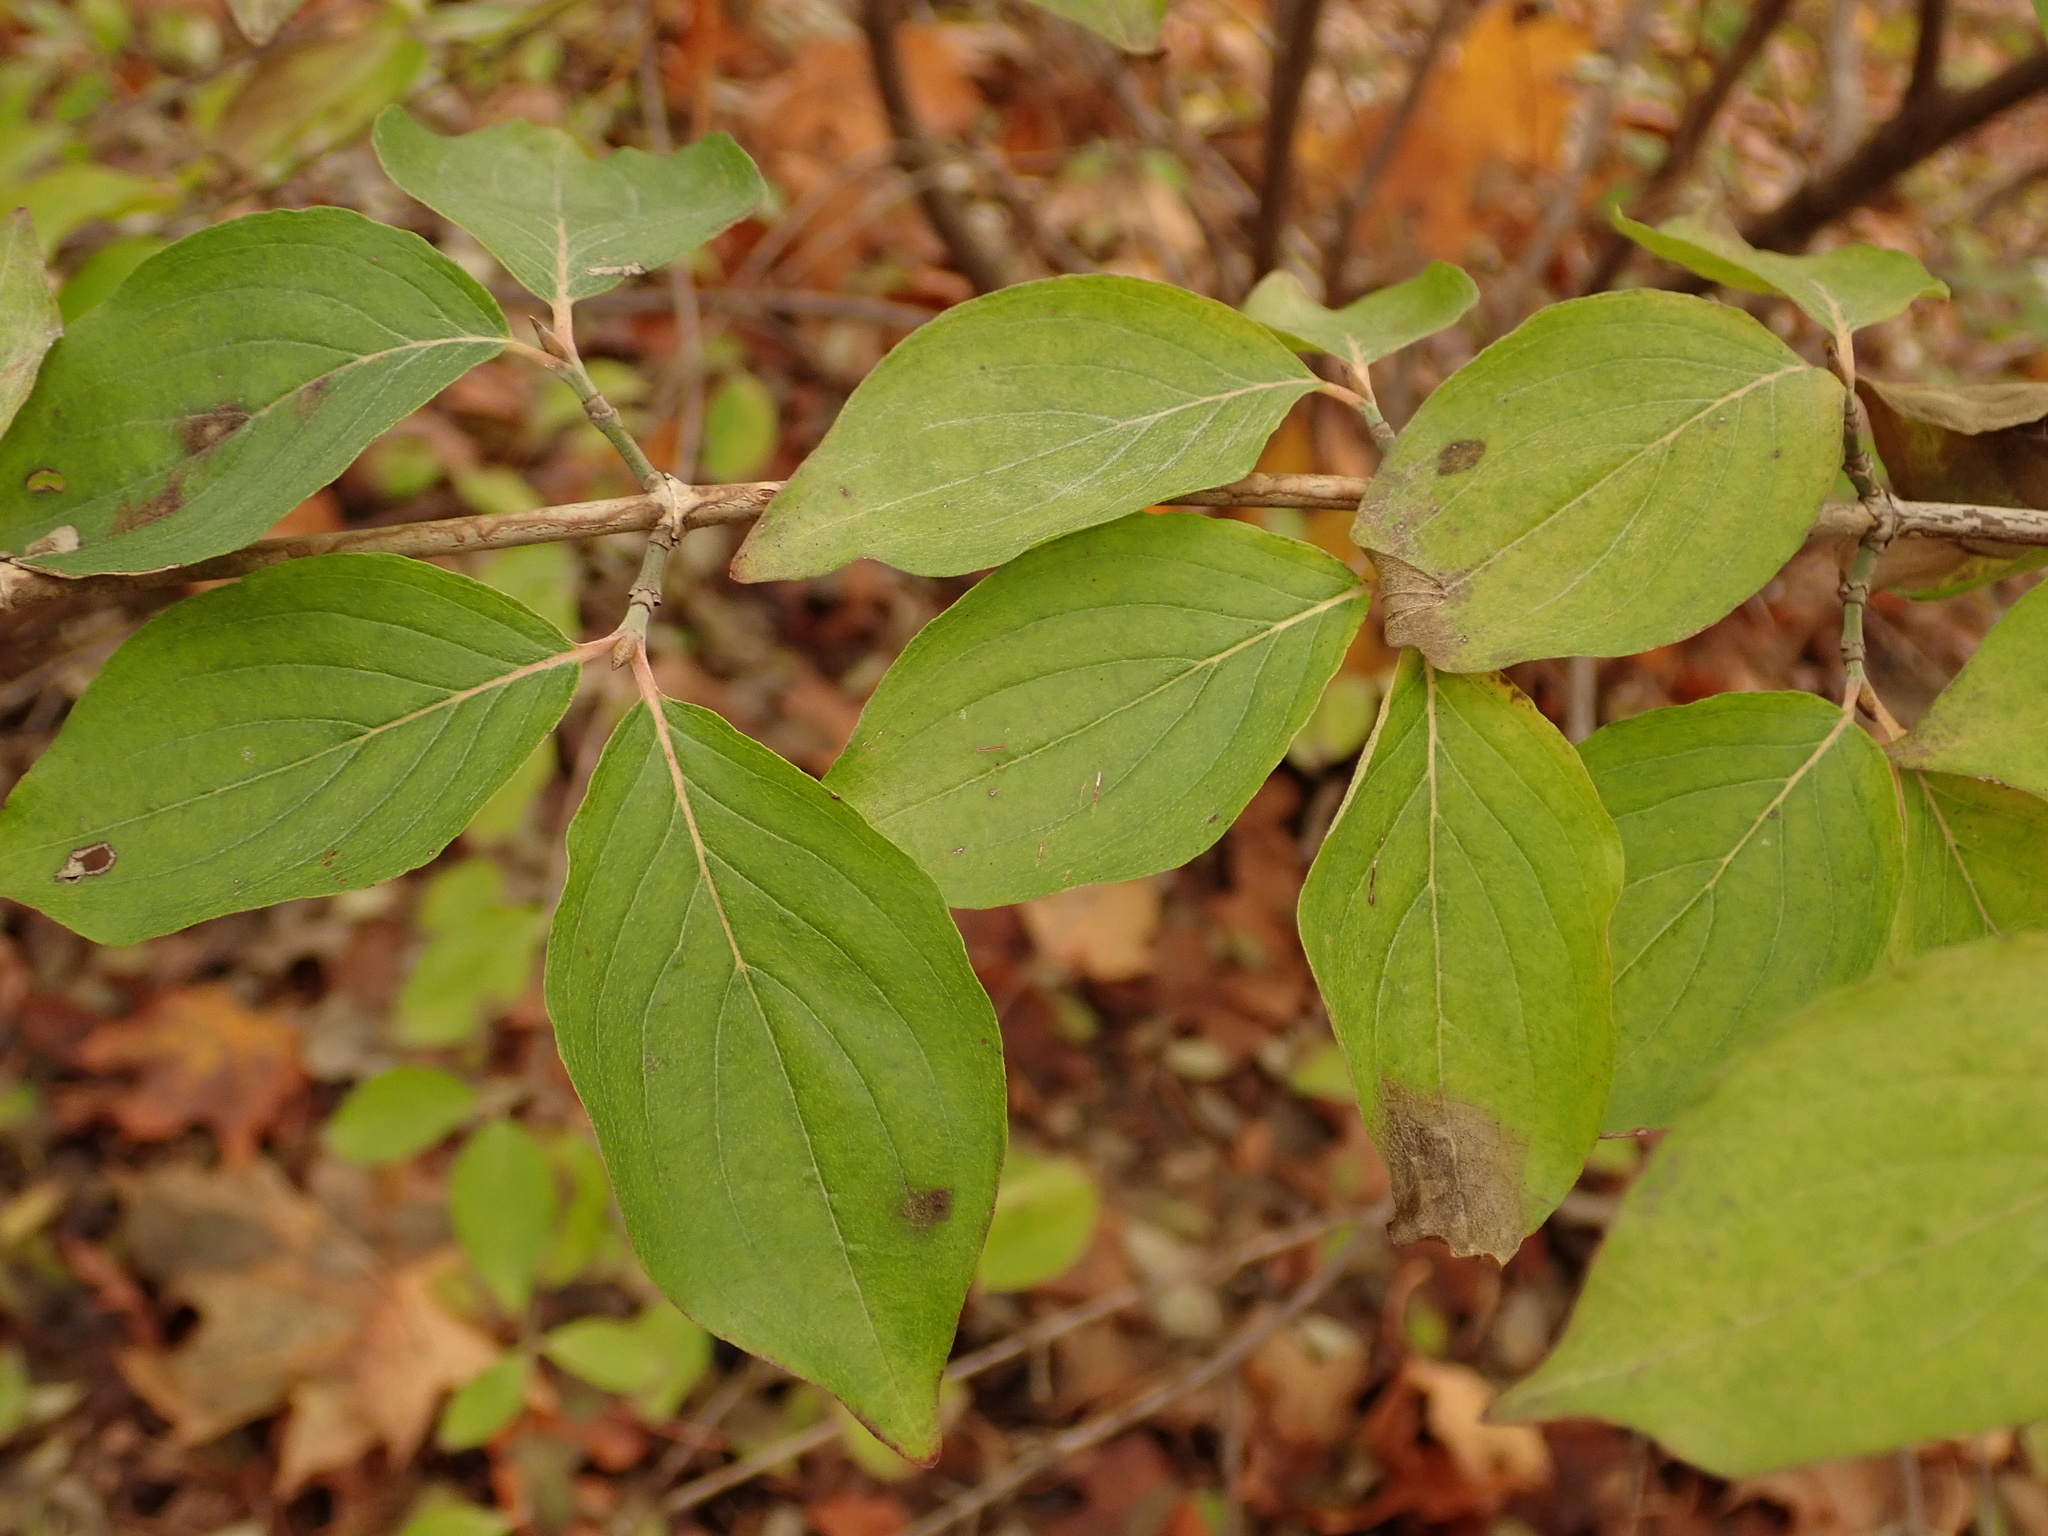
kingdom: Plantae
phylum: Tracheophyta
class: Magnoliopsida
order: Cornales
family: Cornaceae
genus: Cornus
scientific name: Cornus sanguinea
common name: Dogwood
